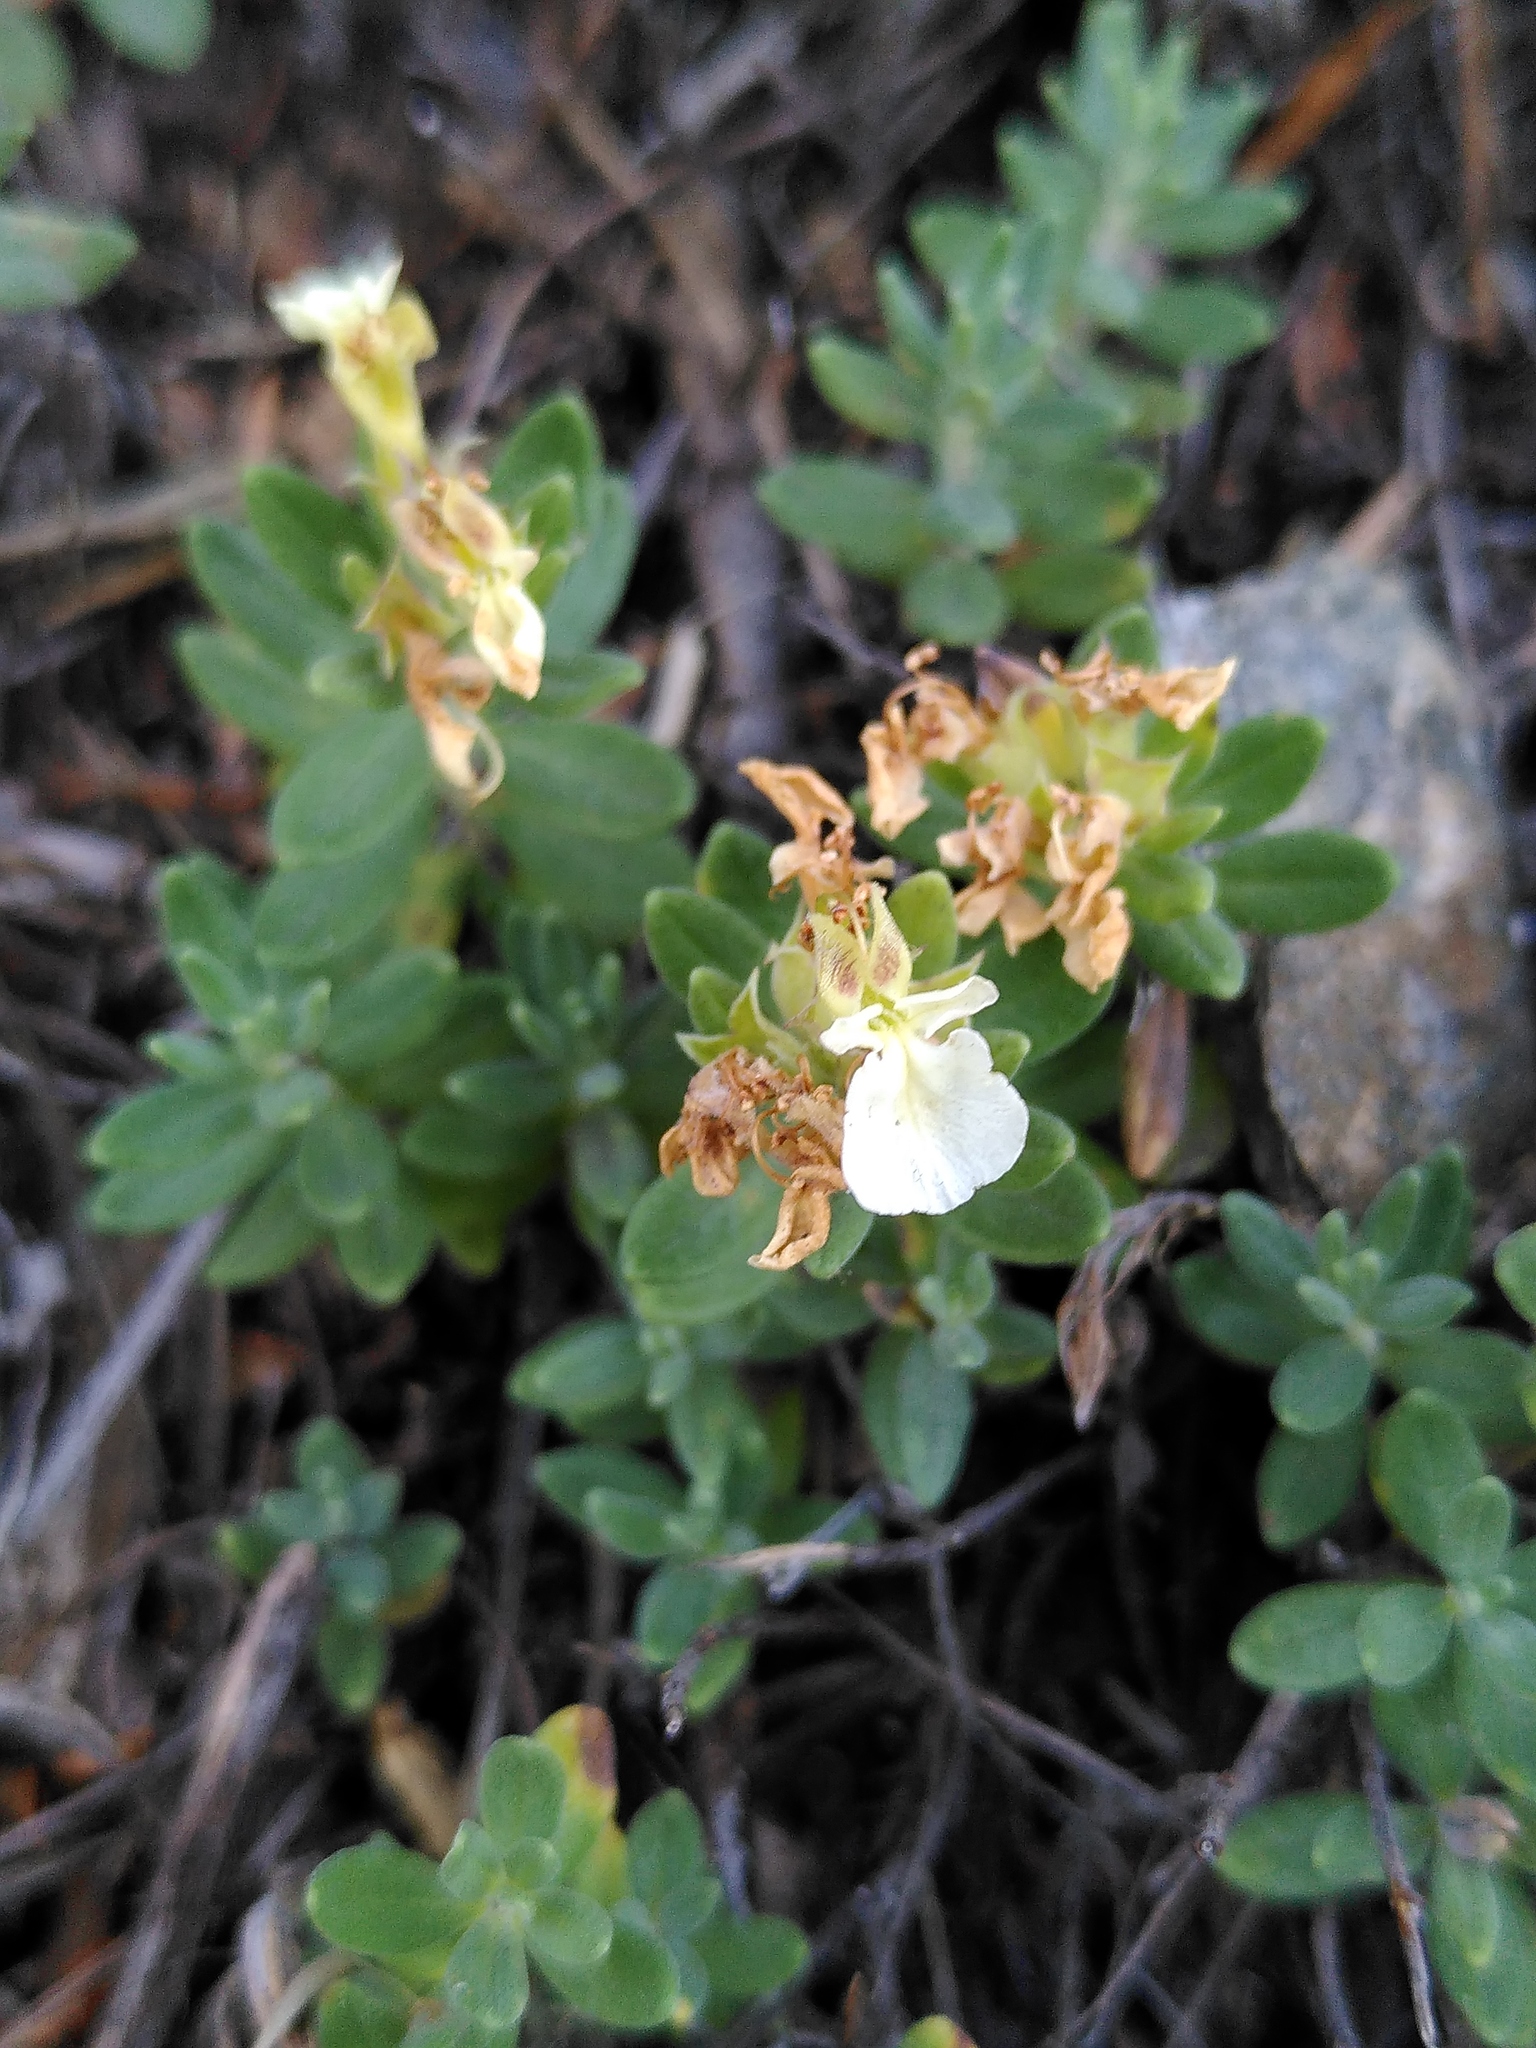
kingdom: Plantae
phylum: Tracheophyta
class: Magnoliopsida
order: Lamiales
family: Lamiaceae
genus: Teucrium
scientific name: Teucrium montanum
